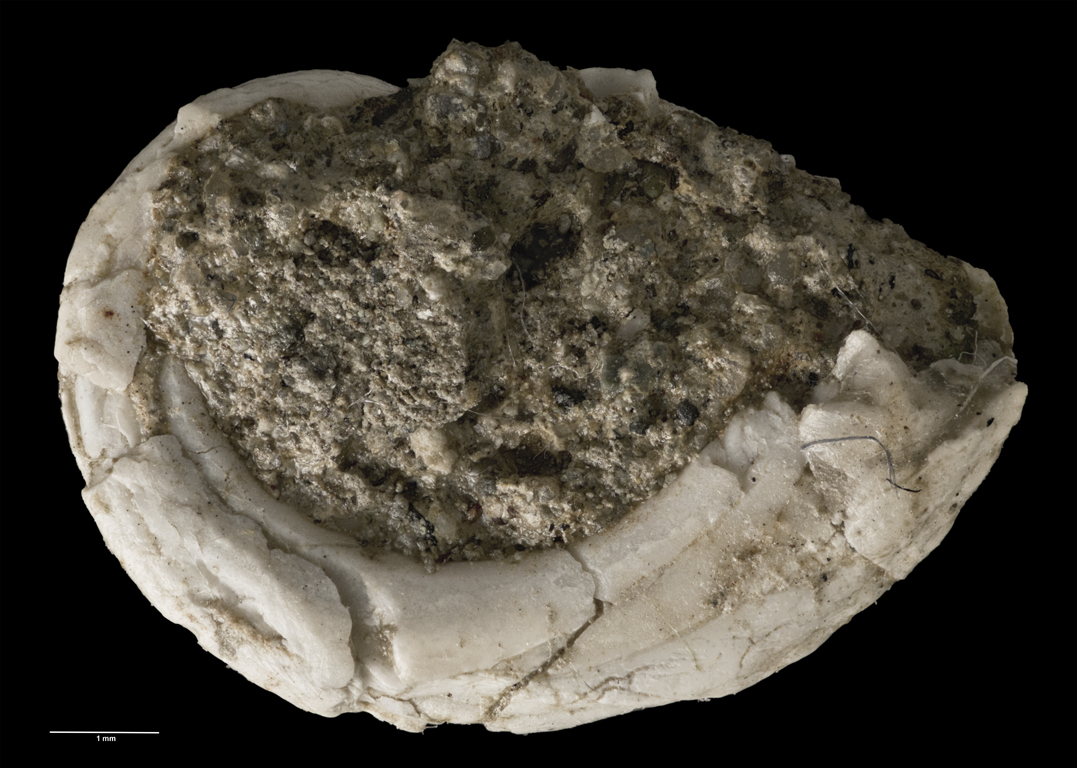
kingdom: Animalia
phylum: Mollusca
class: Gastropoda
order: Lepetellida
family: Haliotidae
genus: Haliotis
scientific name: Haliotis matihetihensis
